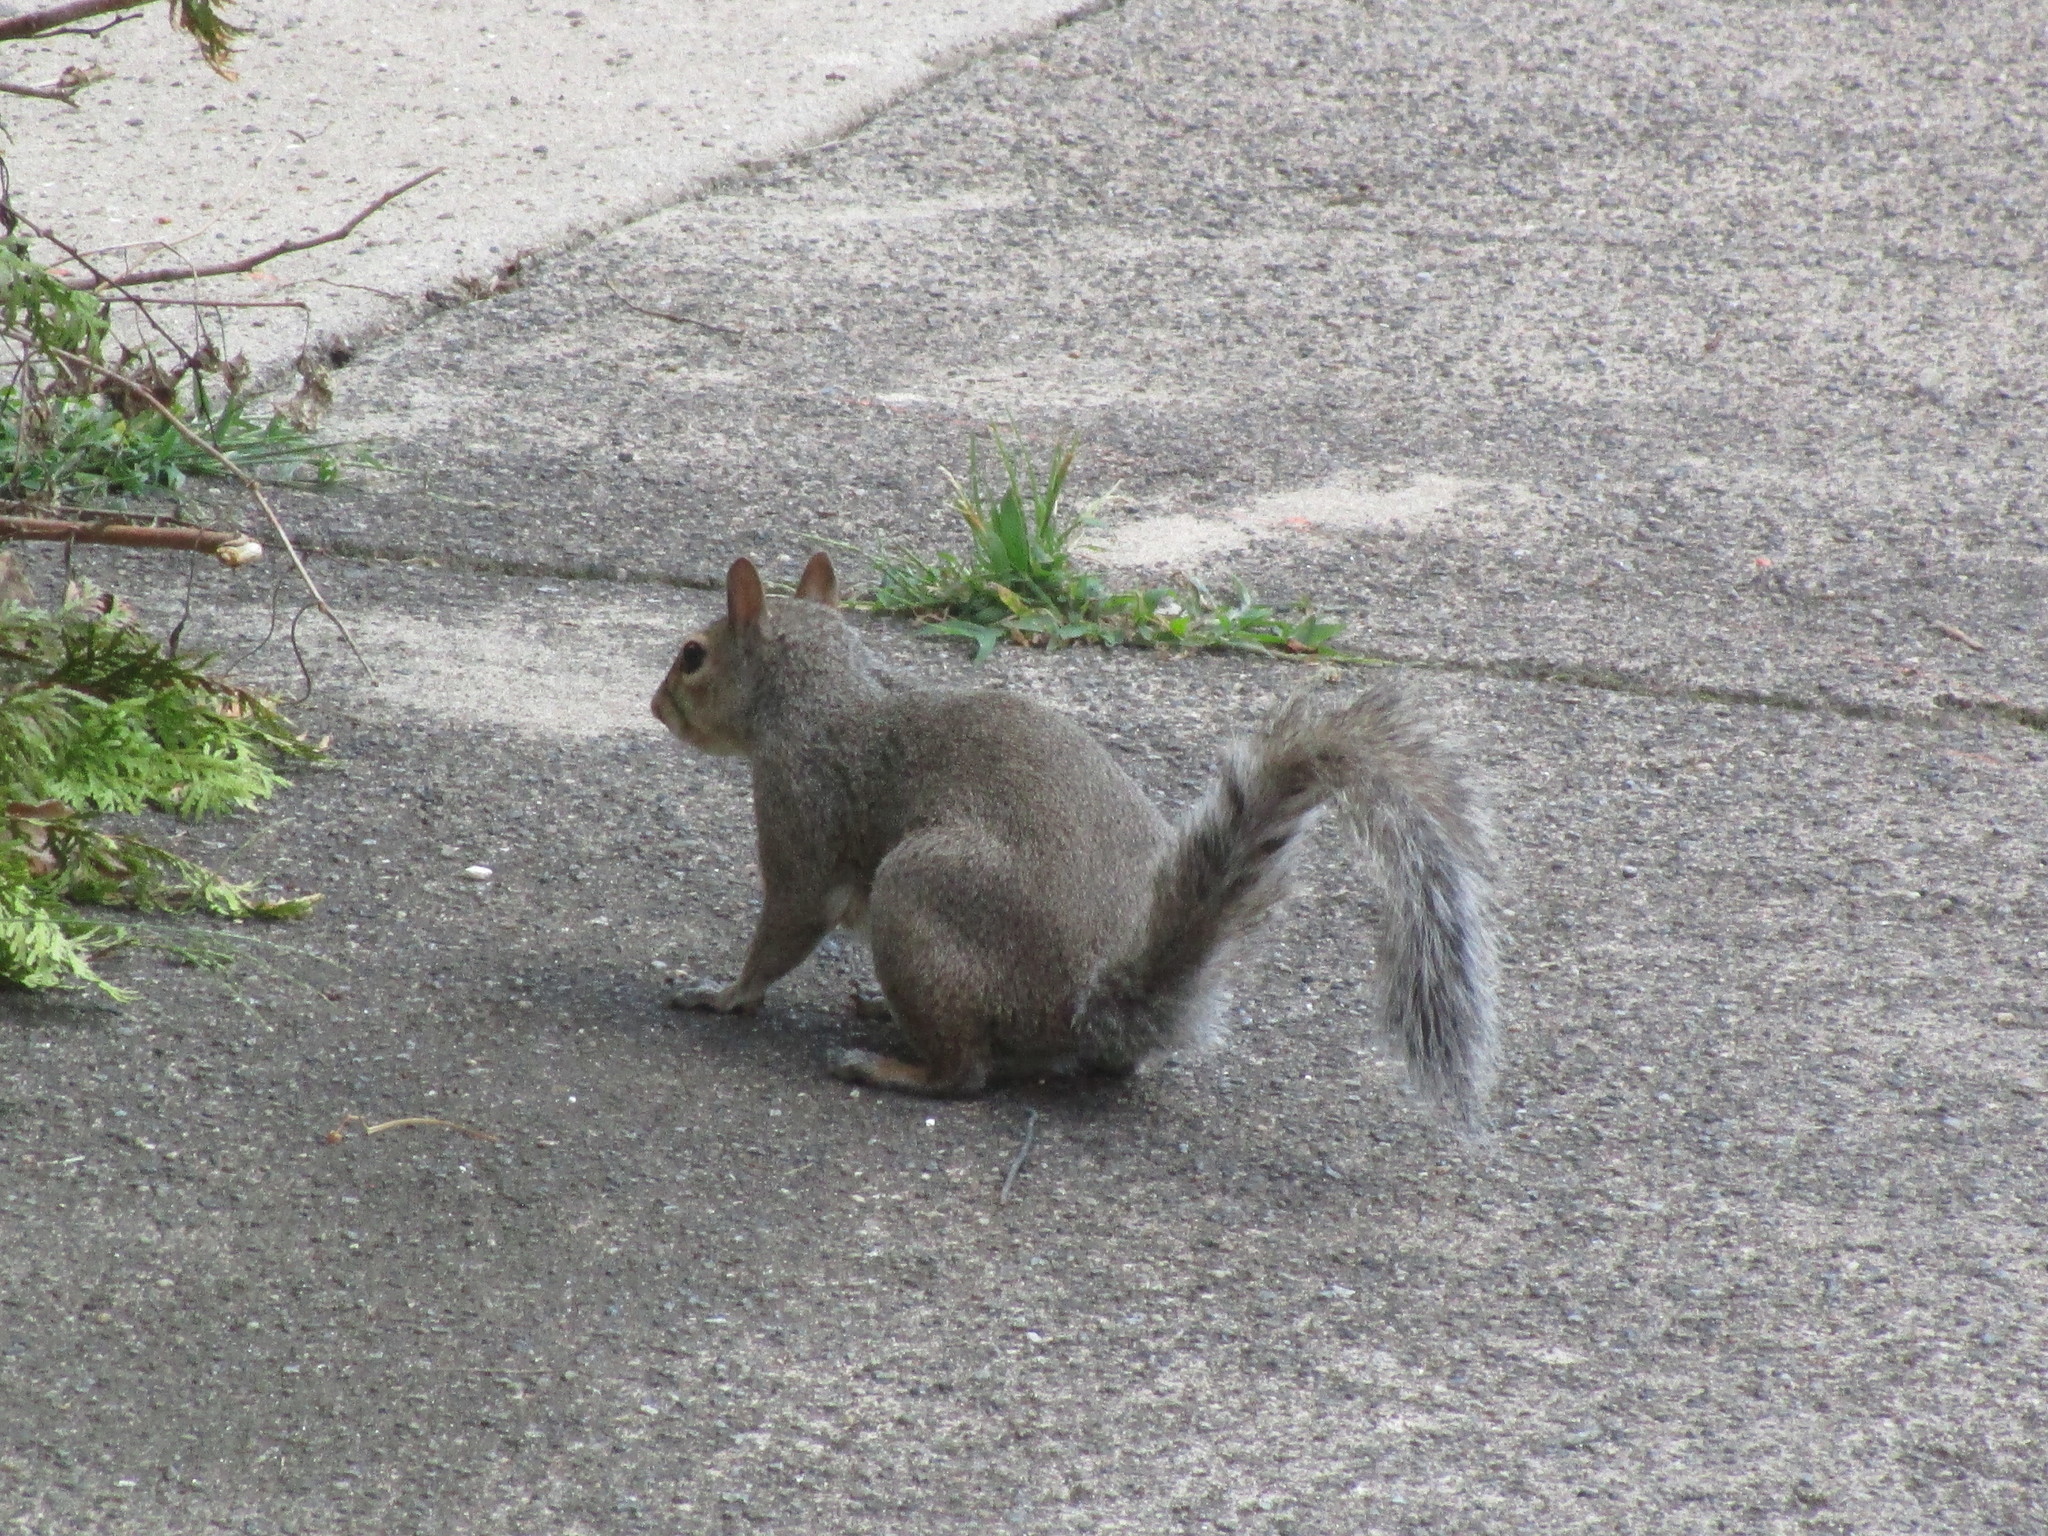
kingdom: Animalia
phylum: Chordata
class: Mammalia
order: Rodentia
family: Sciuridae
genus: Sciurus
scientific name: Sciurus carolinensis
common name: Eastern gray squirrel
